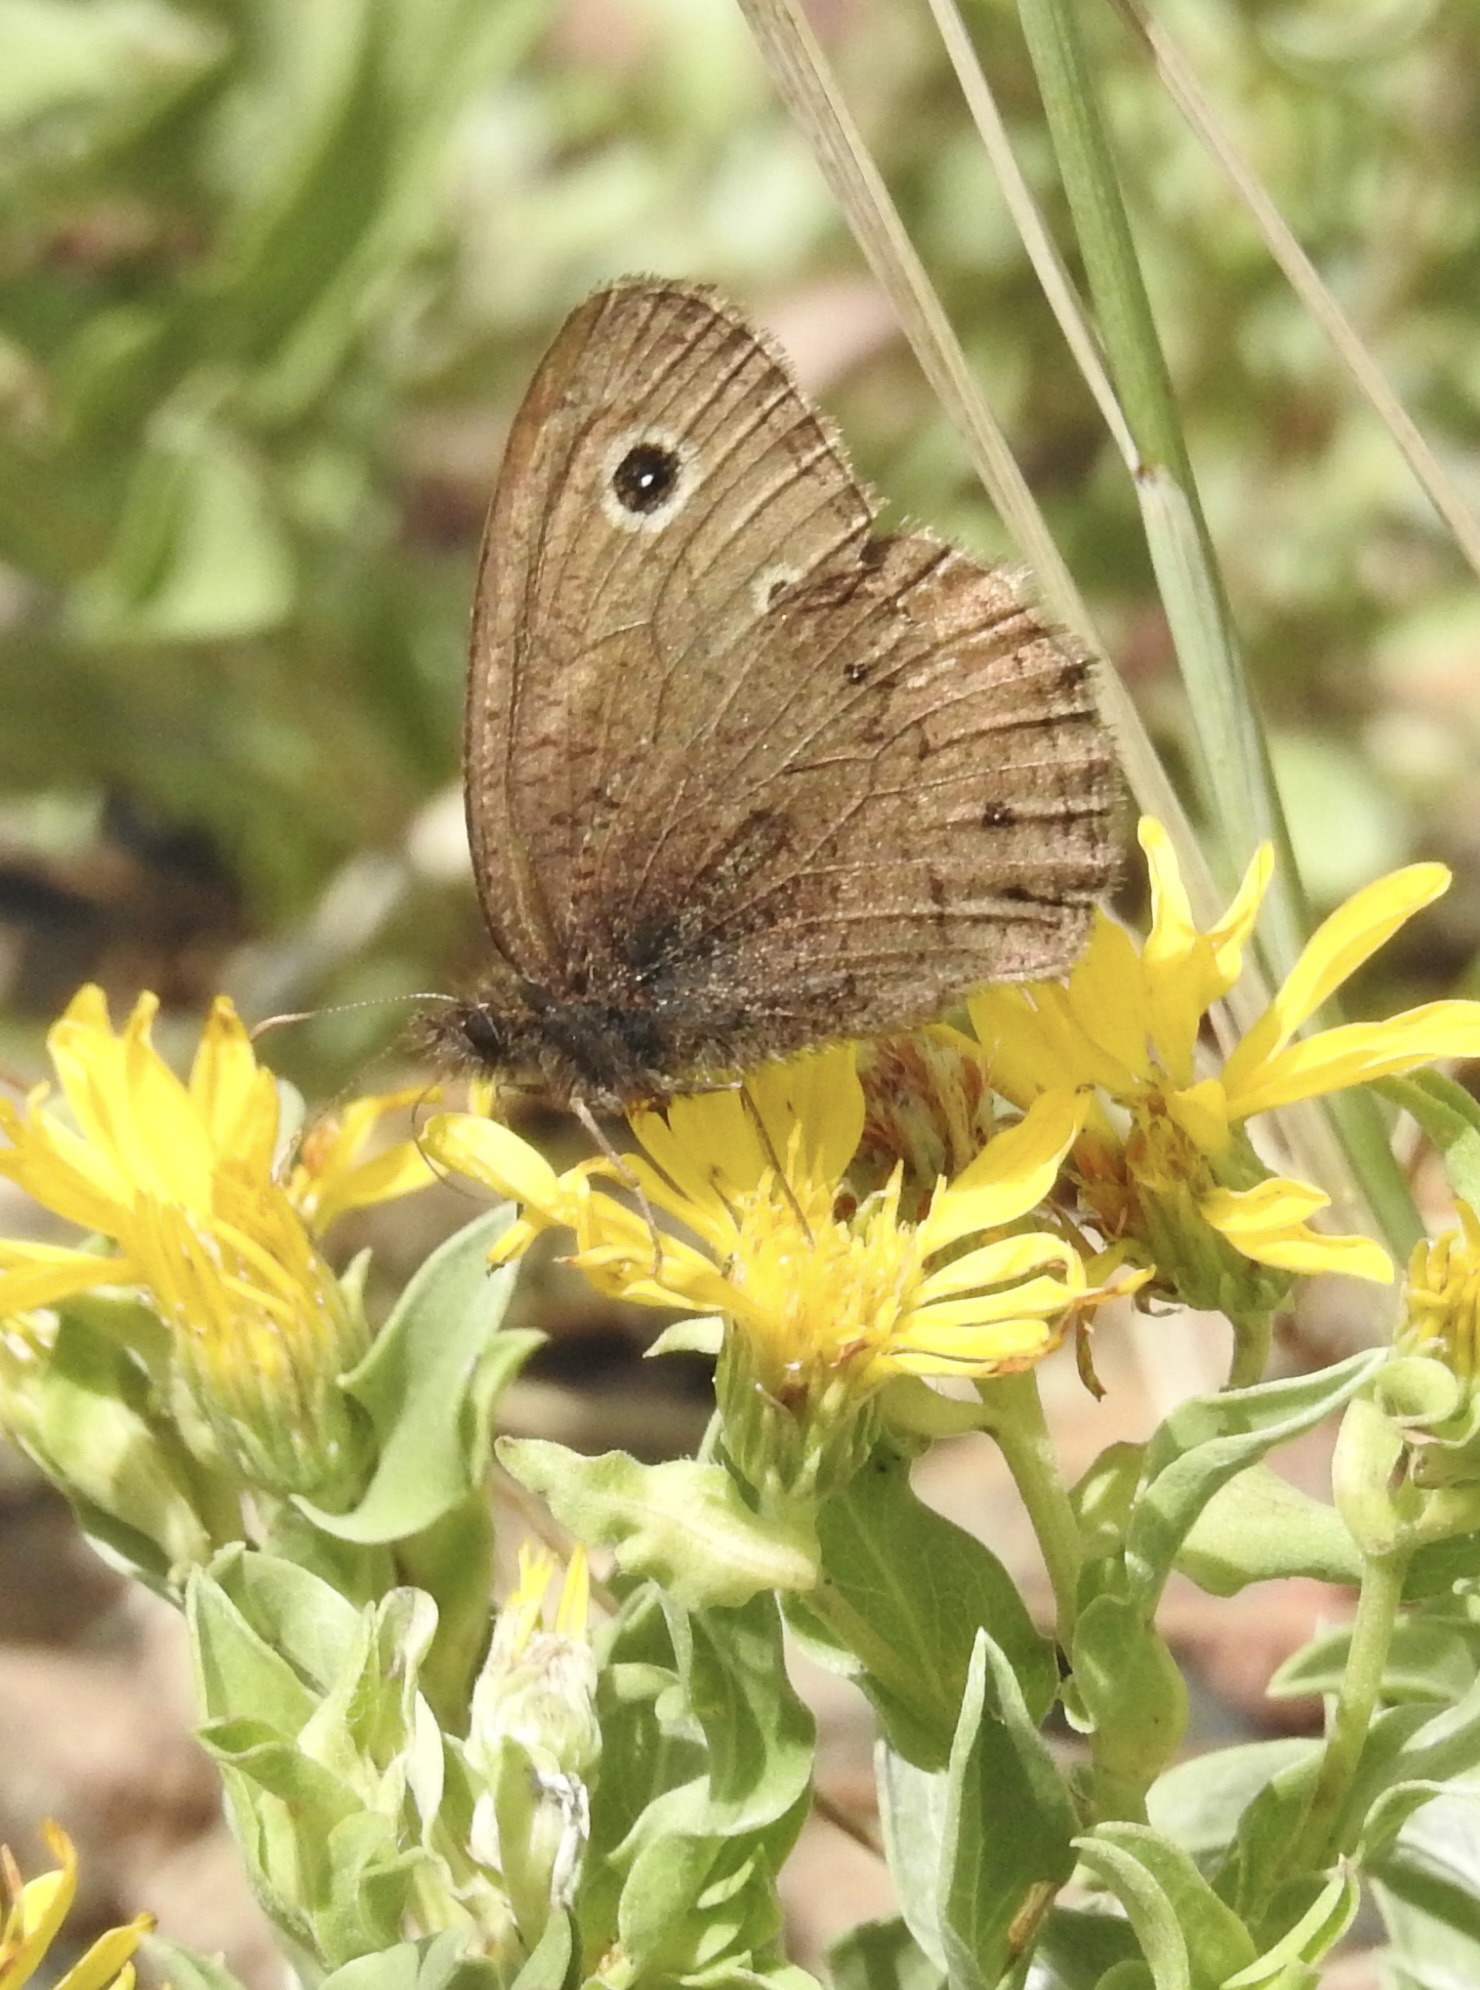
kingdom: Animalia
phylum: Arthropoda
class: Insecta
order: Lepidoptera
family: Nymphalidae
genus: Cercyonis
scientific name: Cercyonis oetus
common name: Small wood-nymph
